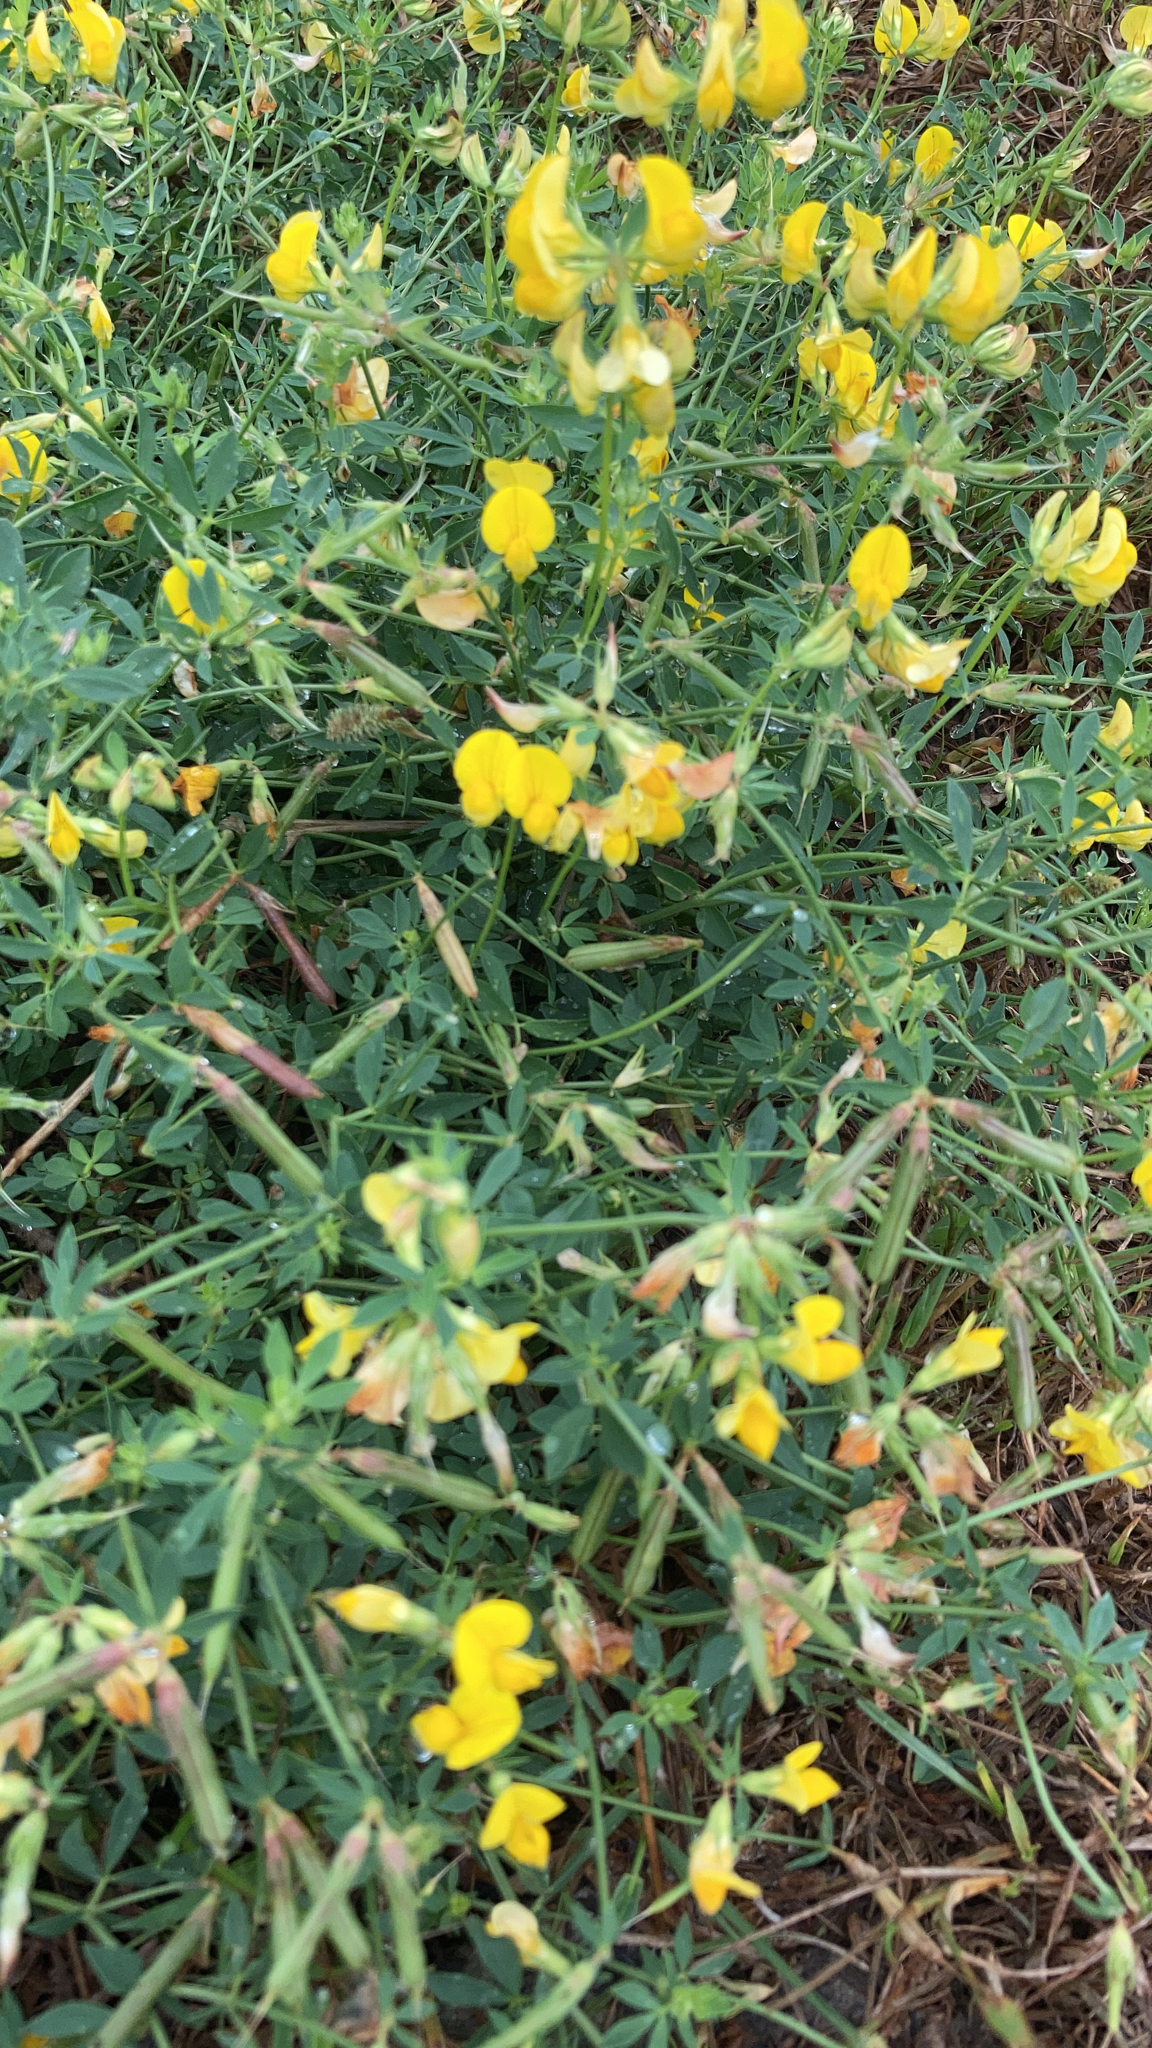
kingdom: Plantae
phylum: Tracheophyta
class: Magnoliopsida
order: Fabales
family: Fabaceae
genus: Lotus
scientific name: Lotus corniculatus
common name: Common bird's-foot-trefoil
